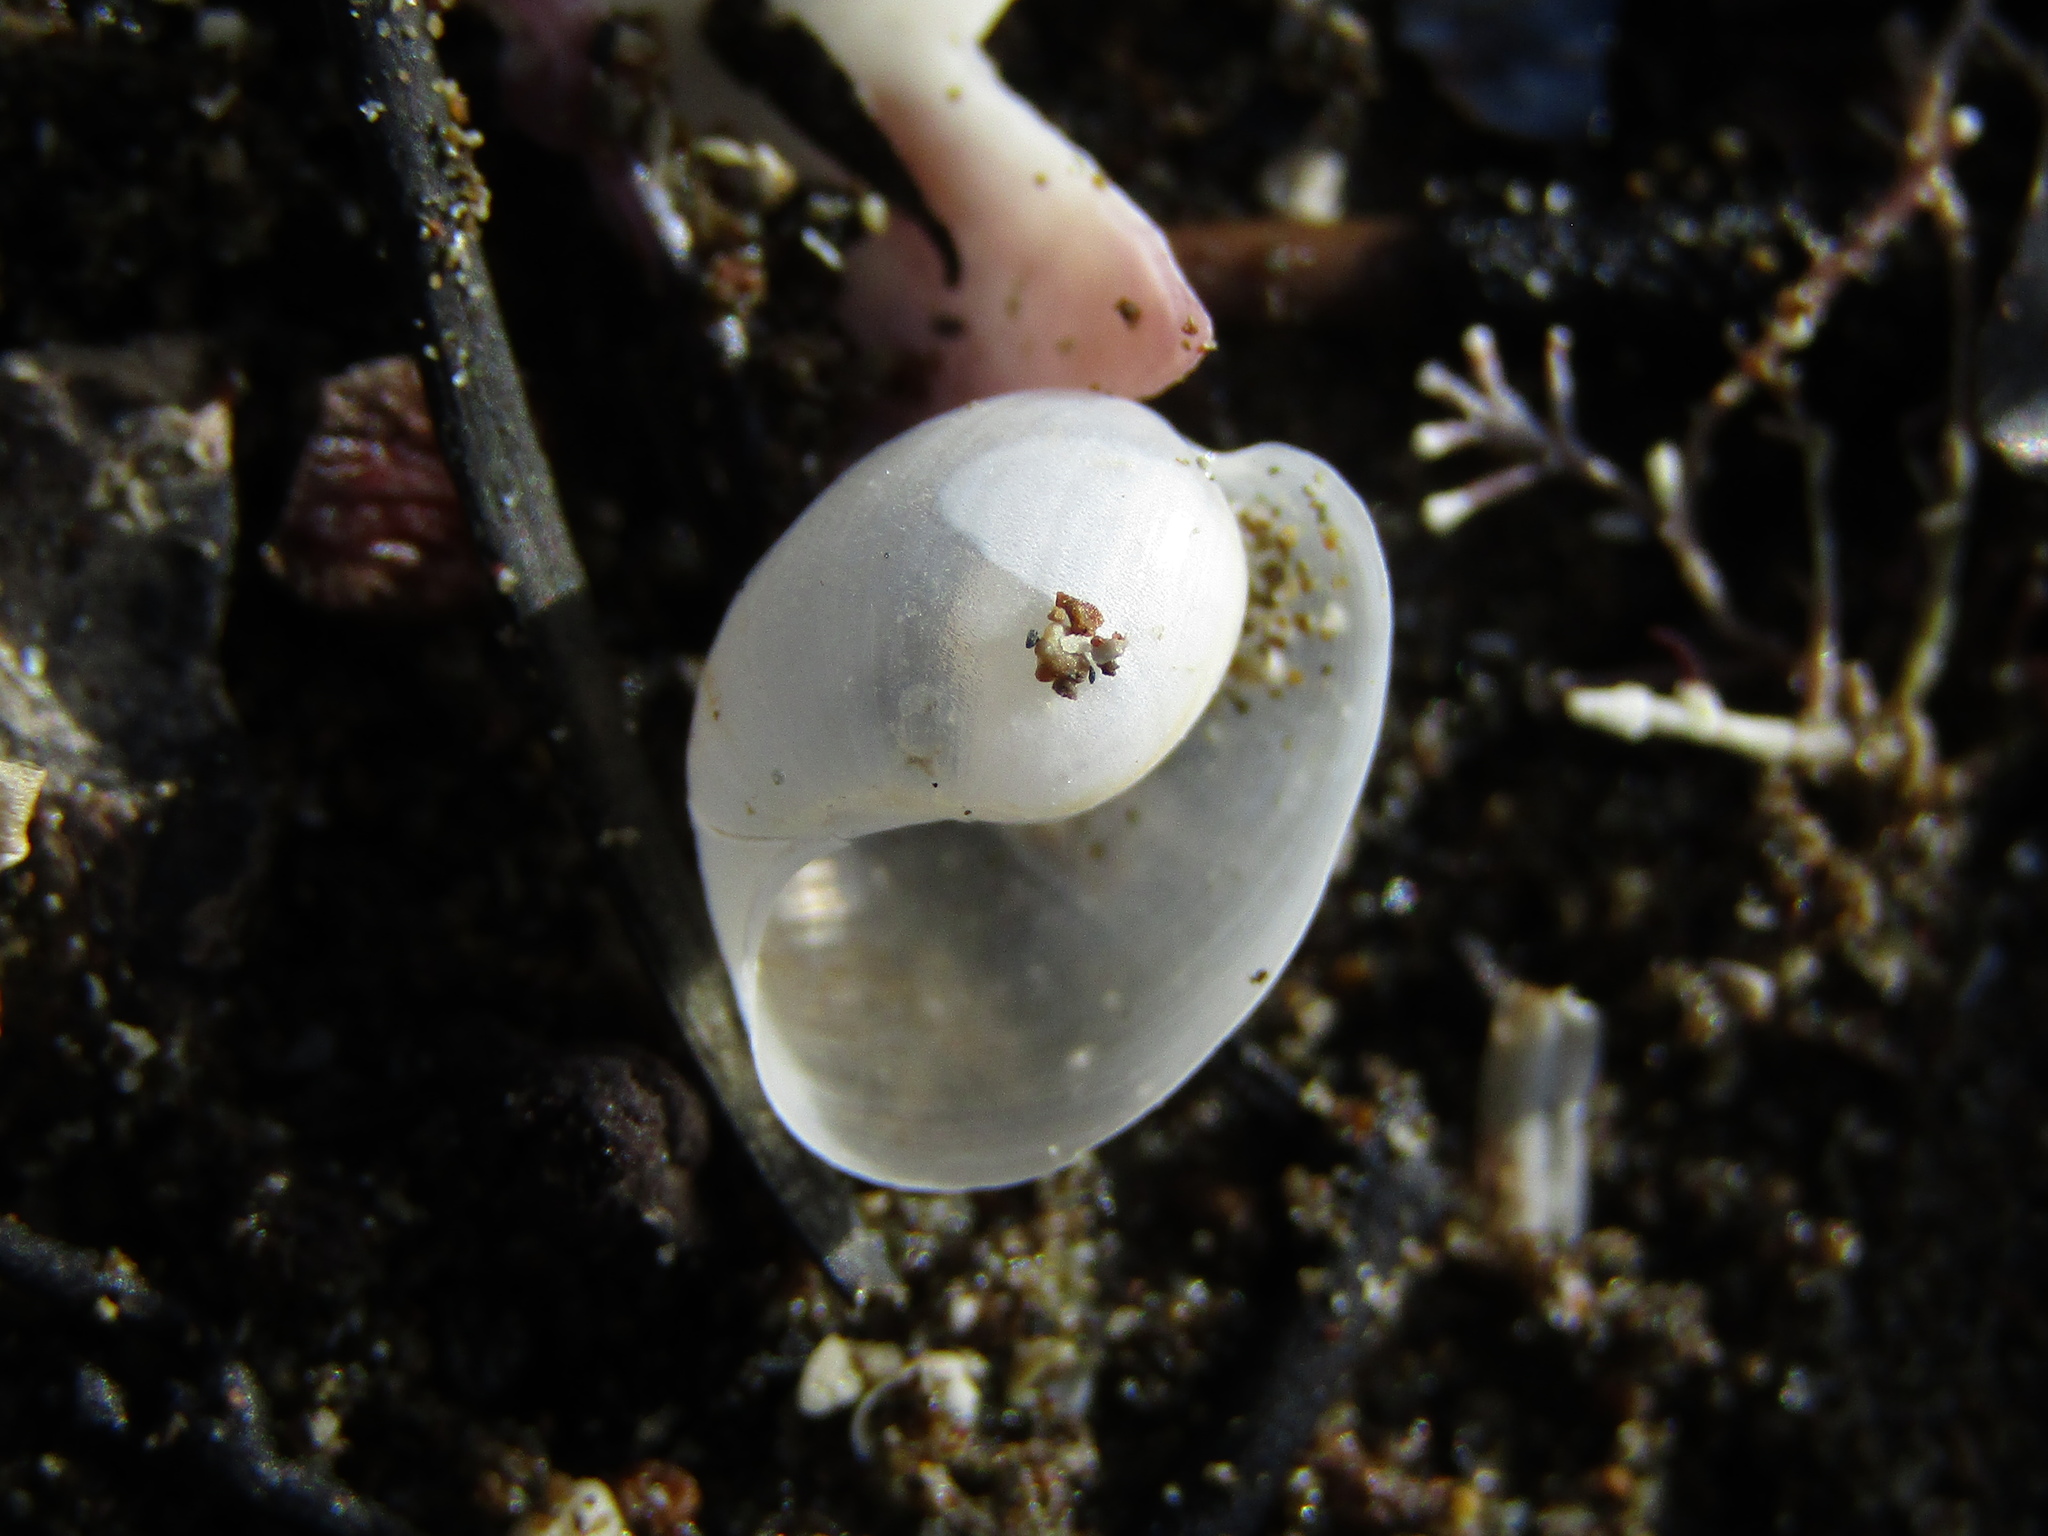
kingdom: Animalia
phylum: Mollusca
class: Gastropoda
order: Cephalaspidea
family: Haminoeidae
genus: Papawera
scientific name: Papawera zelandiae
